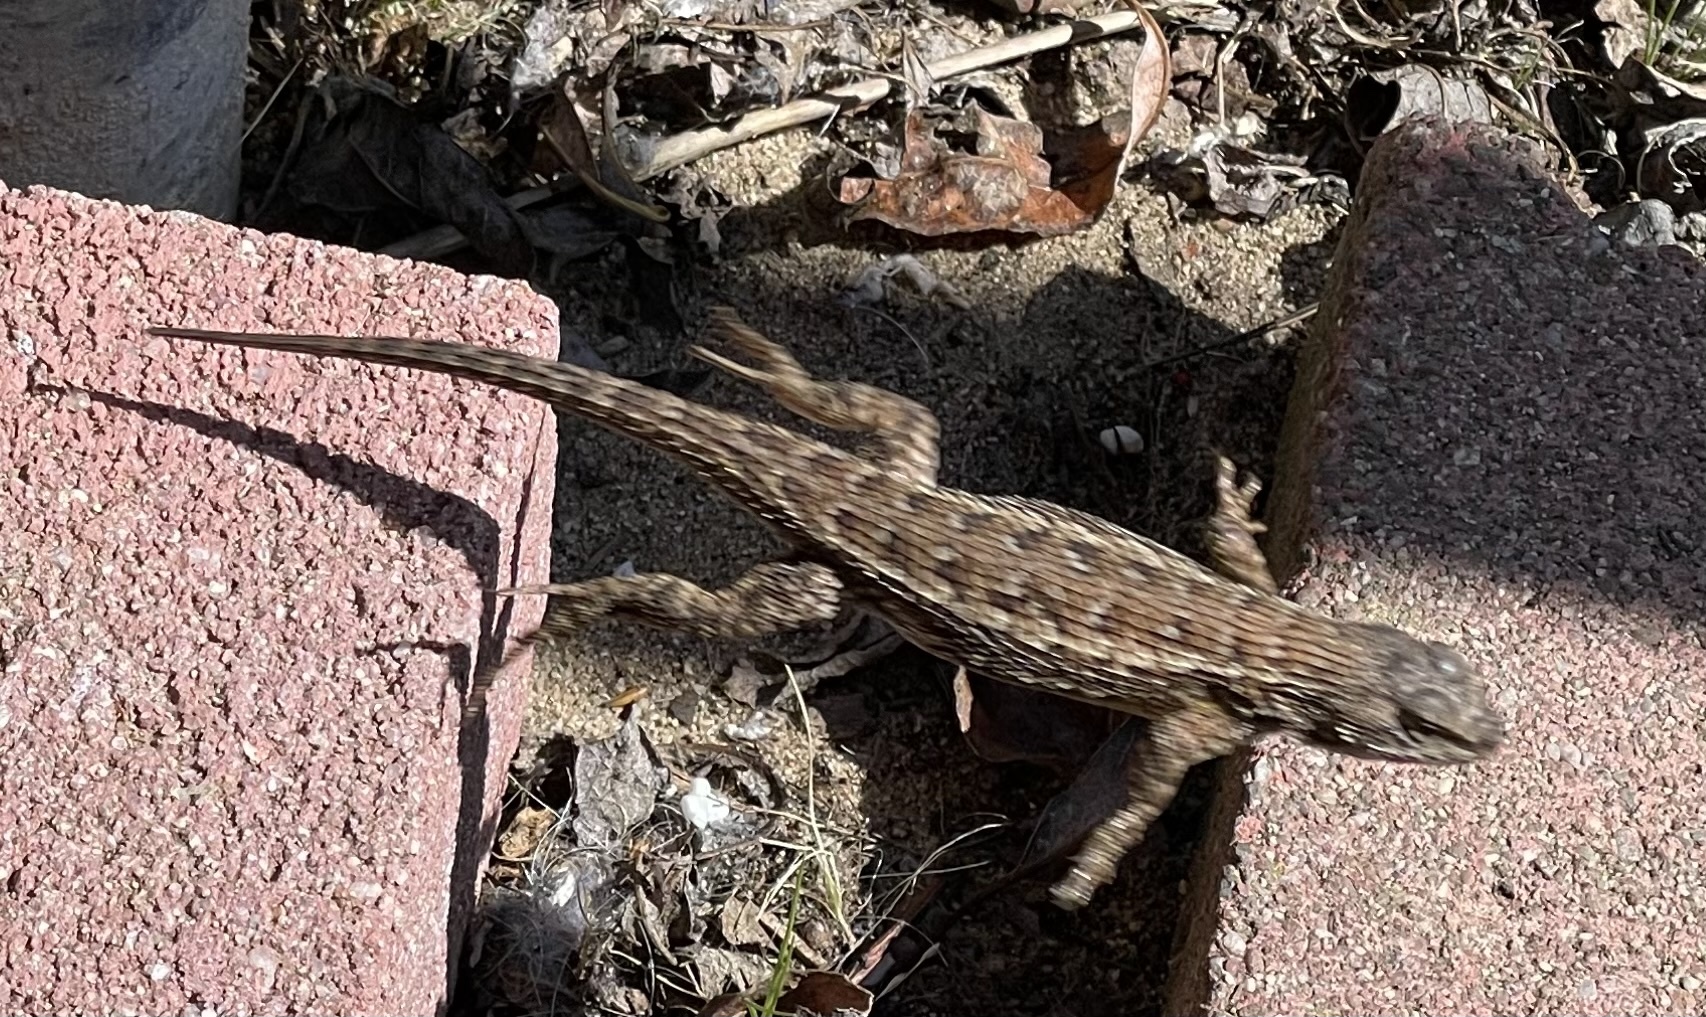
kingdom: Animalia
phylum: Chordata
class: Squamata
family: Phrynosomatidae
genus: Sceloporus
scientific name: Sceloporus occidentalis
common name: Western fence lizard
